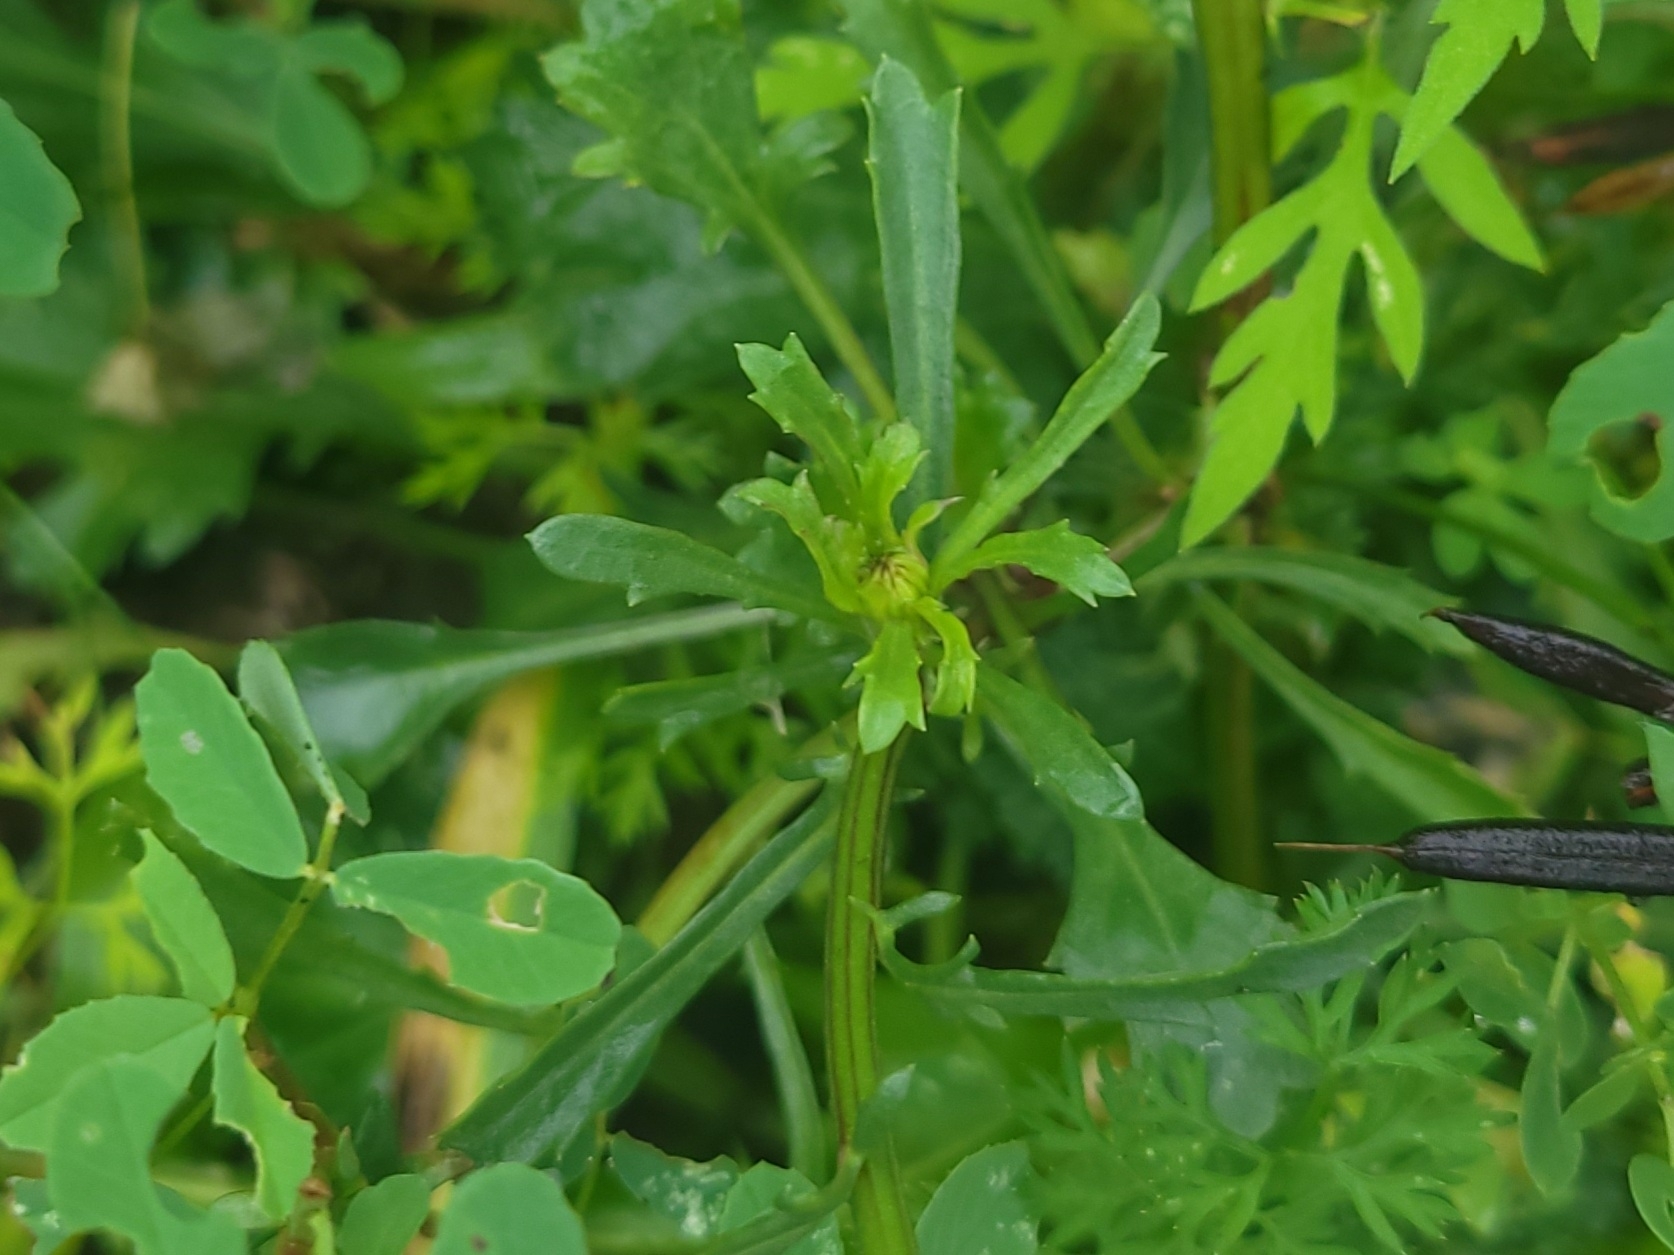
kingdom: Plantae
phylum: Tracheophyta
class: Magnoliopsida
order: Asterales
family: Asteraceae
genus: Leucanthemum
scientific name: Leucanthemum vulgare
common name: Oxeye daisy
